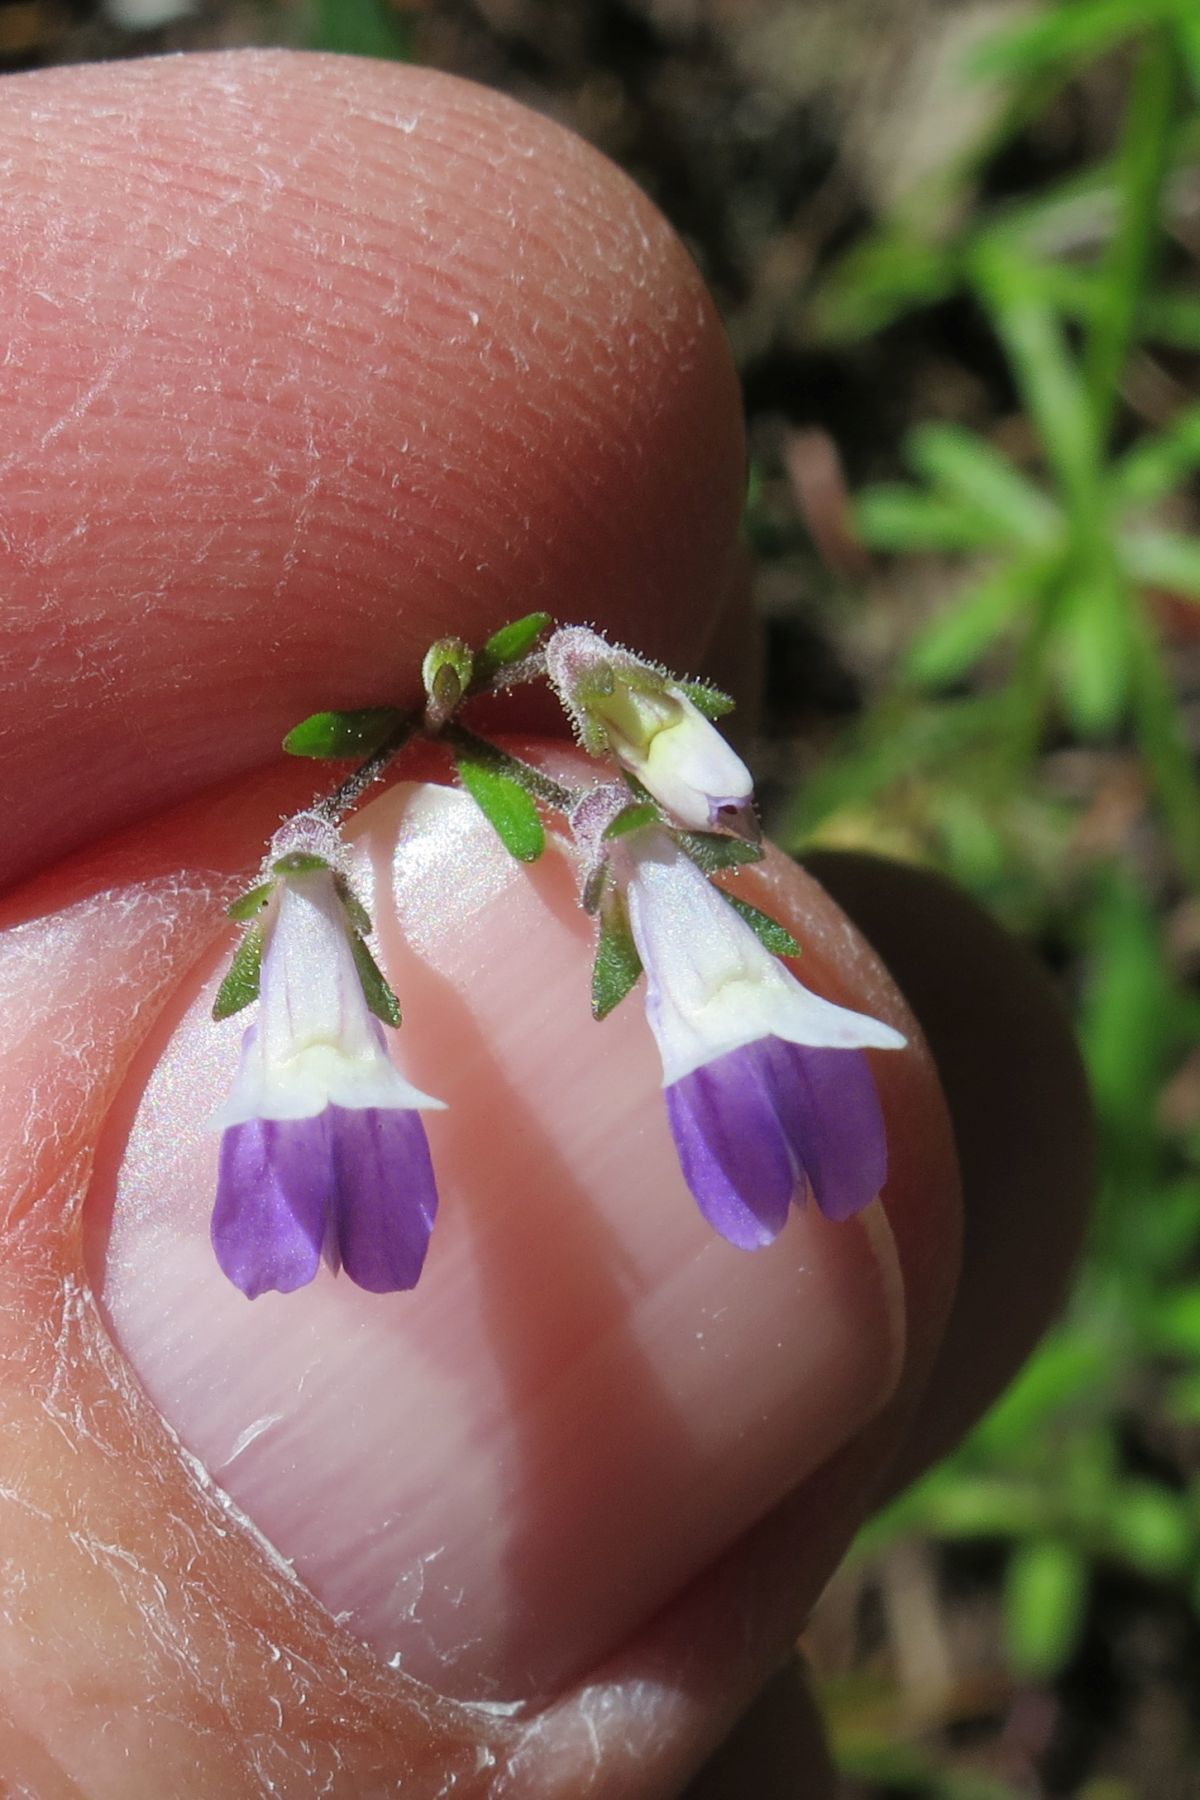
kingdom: Plantae
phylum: Tracheophyta
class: Magnoliopsida
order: Lamiales
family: Plantaginaceae
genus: Collinsia
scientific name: Collinsia rattanii
